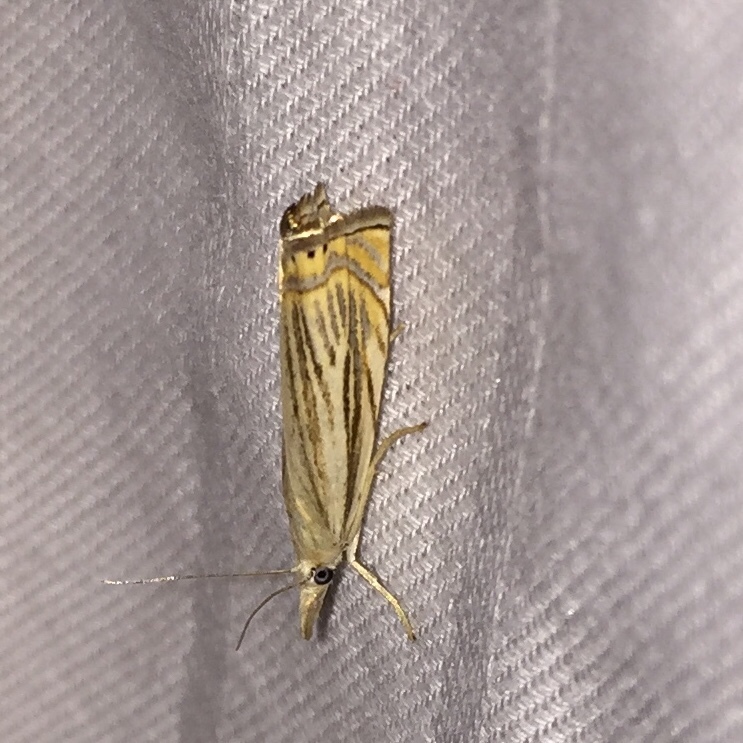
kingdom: Animalia
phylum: Arthropoda
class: Insecta
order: Lepidoptera
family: Crambidae
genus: Chrysoteuchia
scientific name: Chrysoteuchia topiarius
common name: Topiary grass-veneer
